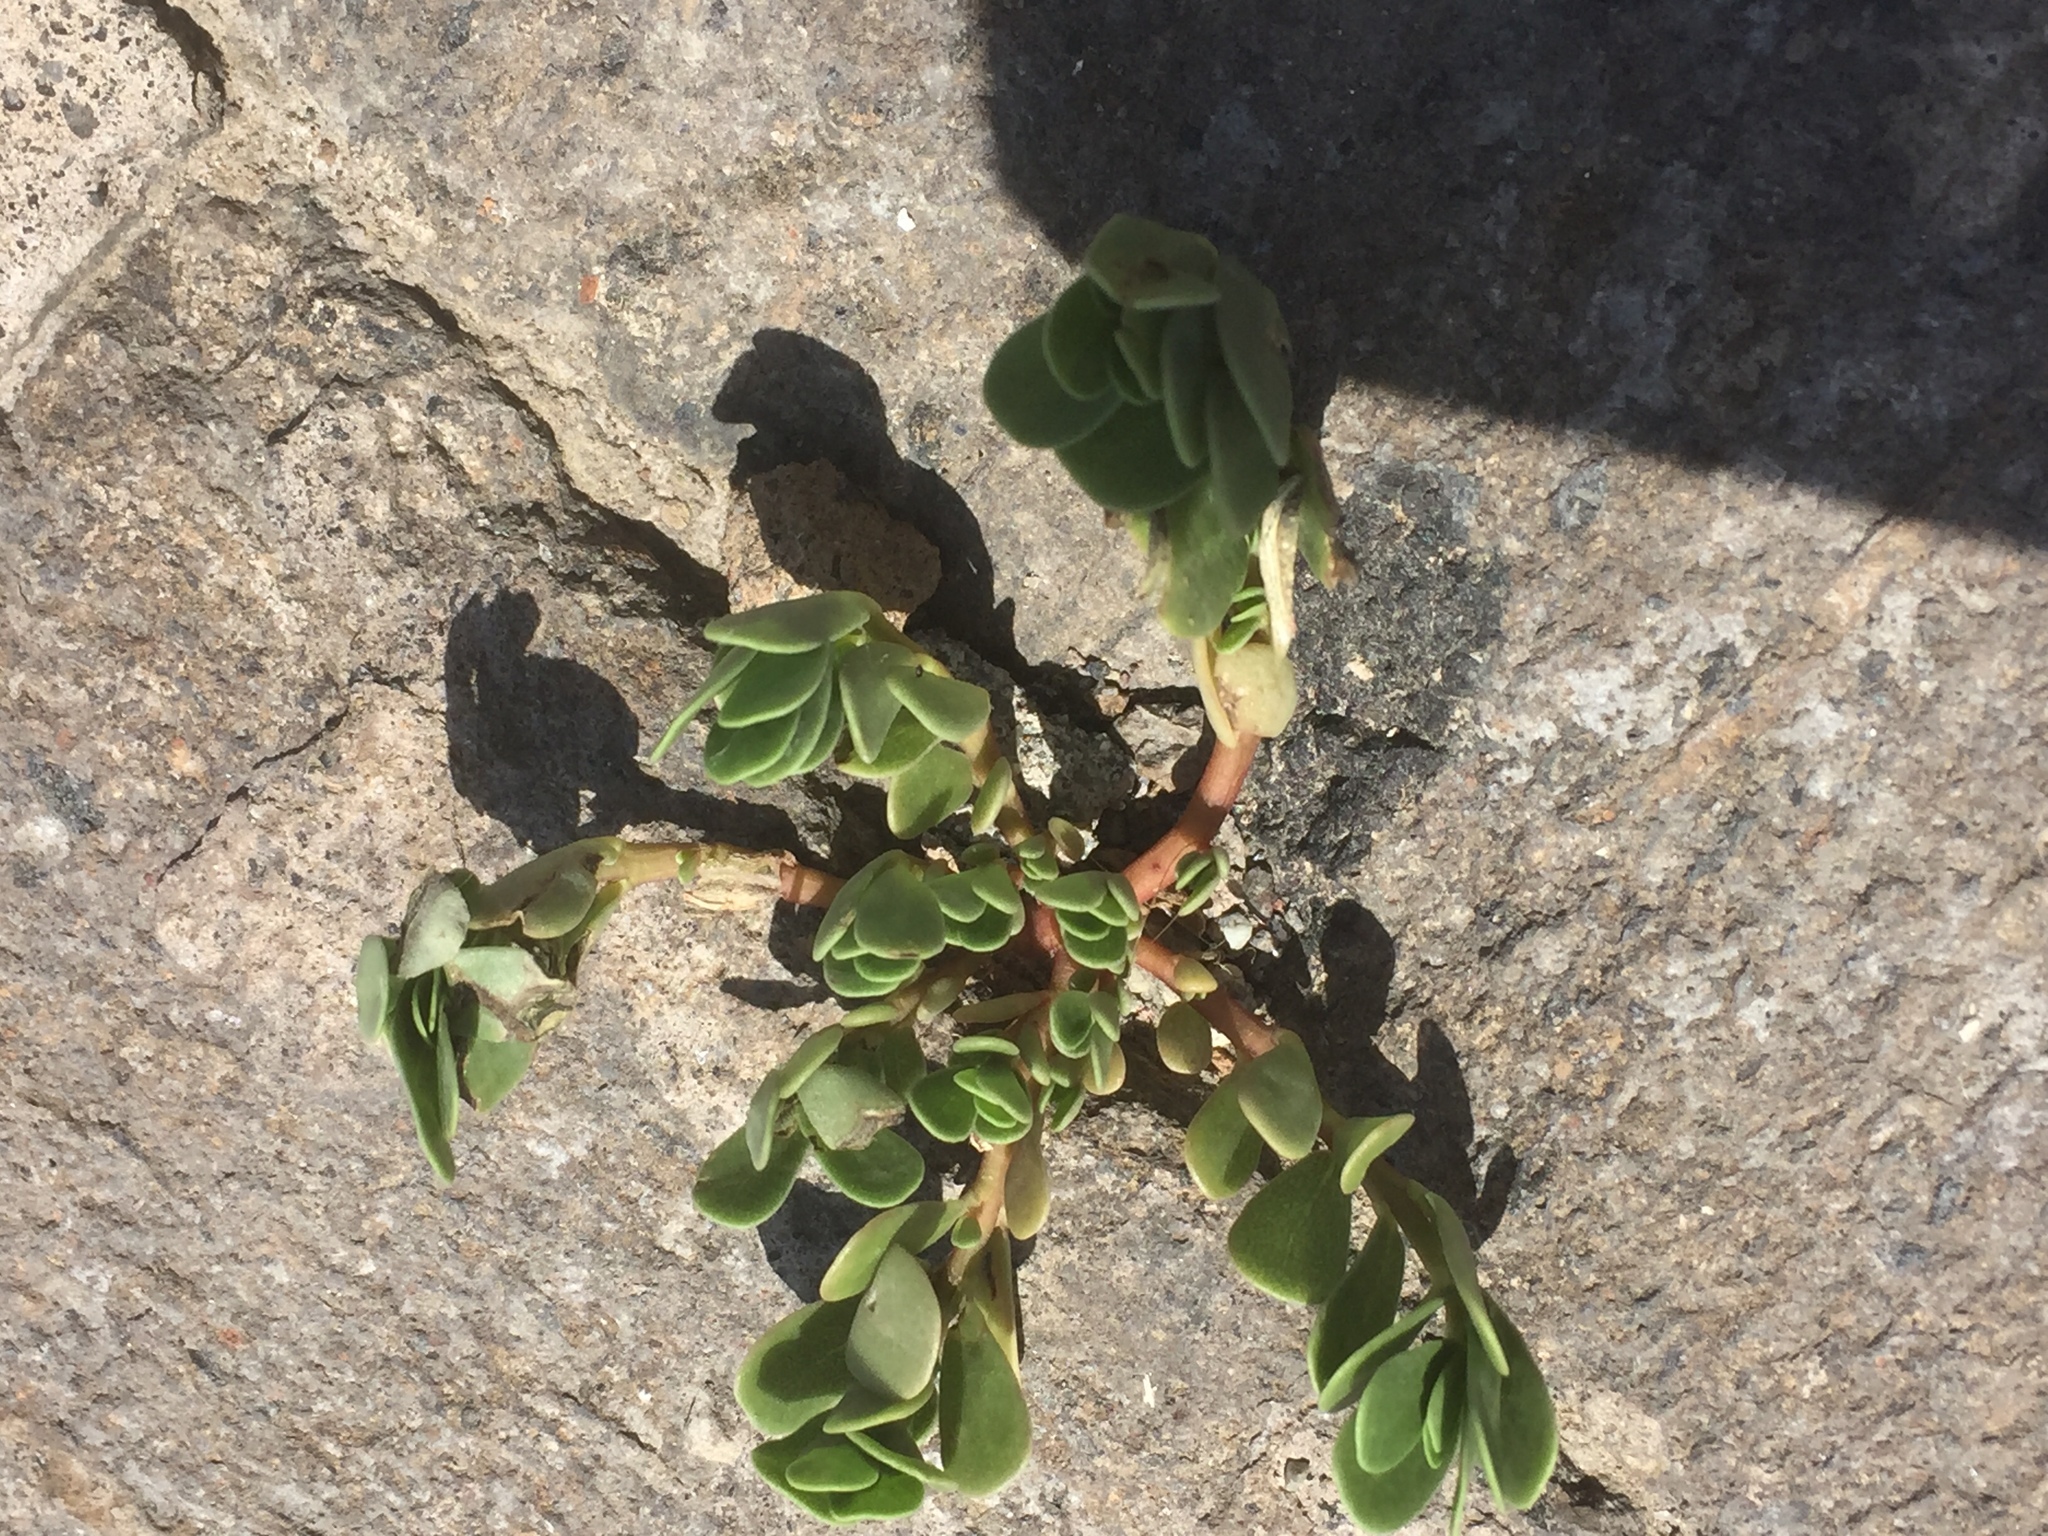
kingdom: Plantae
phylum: Tracheophyta
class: Magnoliopsida
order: Caryophyllales
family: Portulacaceae
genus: Portulaca
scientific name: Portulaca oleracea
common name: Common purslane
